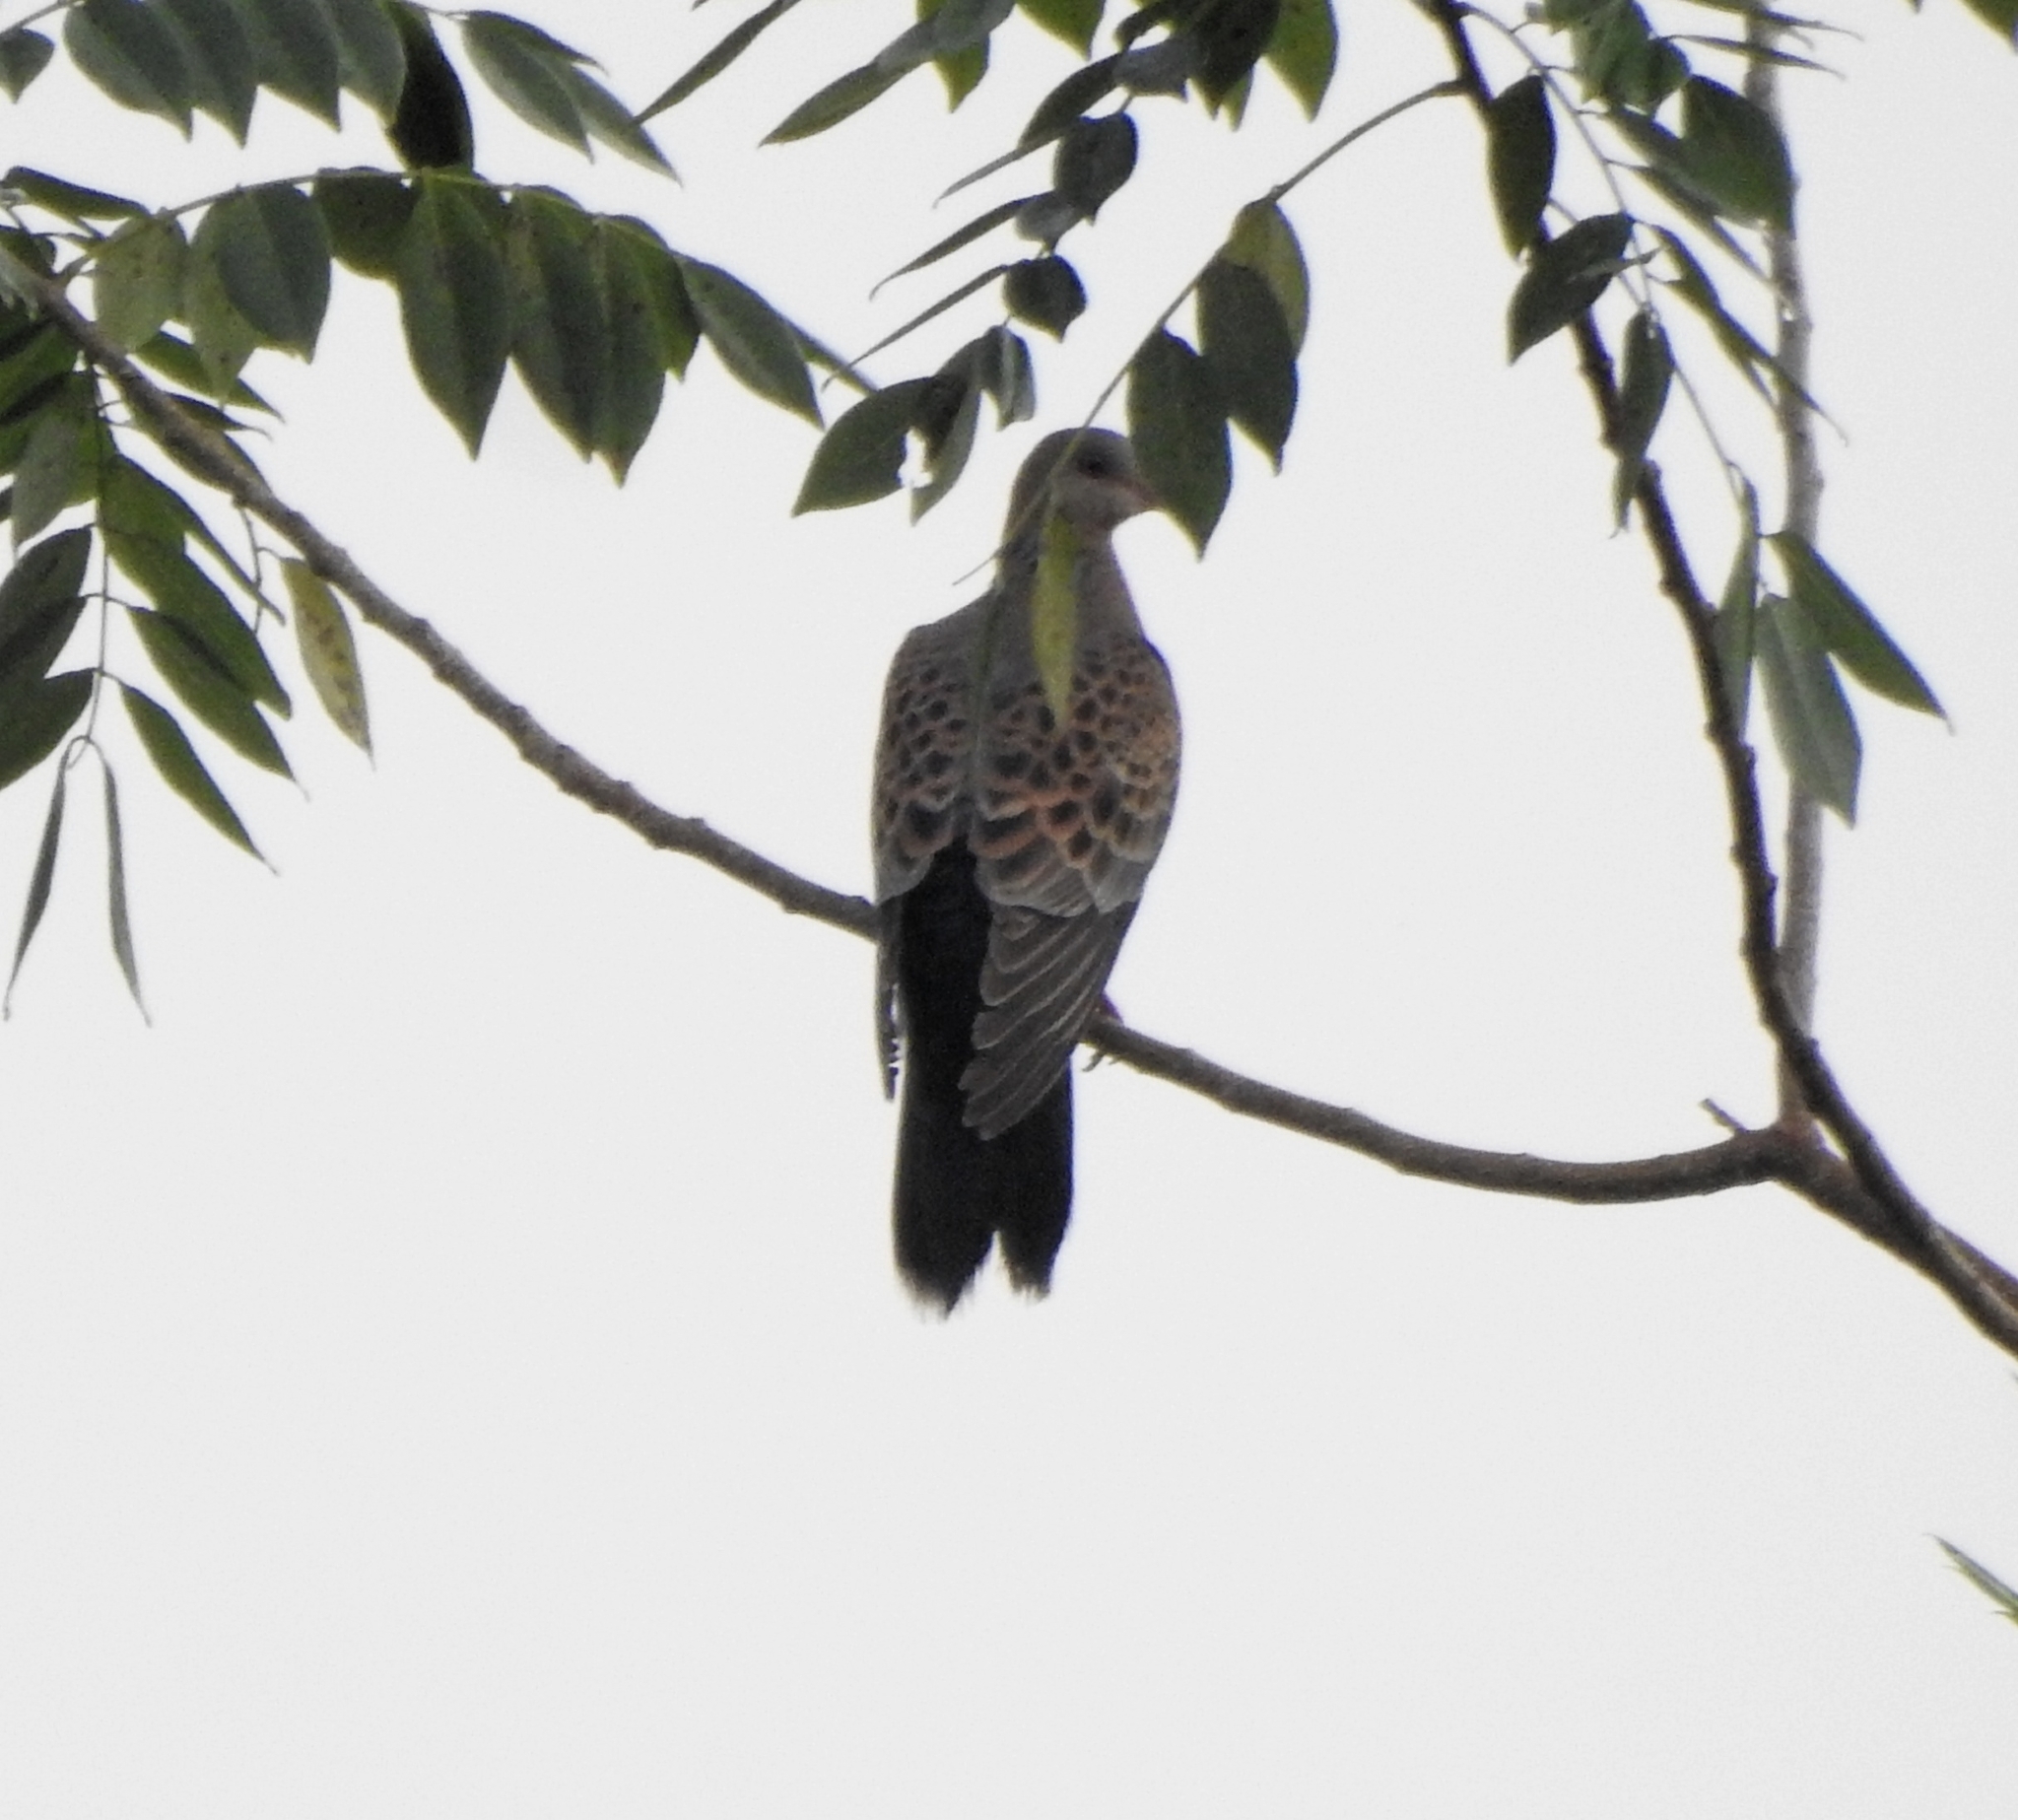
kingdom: Animalia
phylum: Chordata
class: Aves
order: Columbiformes
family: Columbidae
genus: Streptopelia
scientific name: Streptopelia orientalis
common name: Oriental turtle dove
